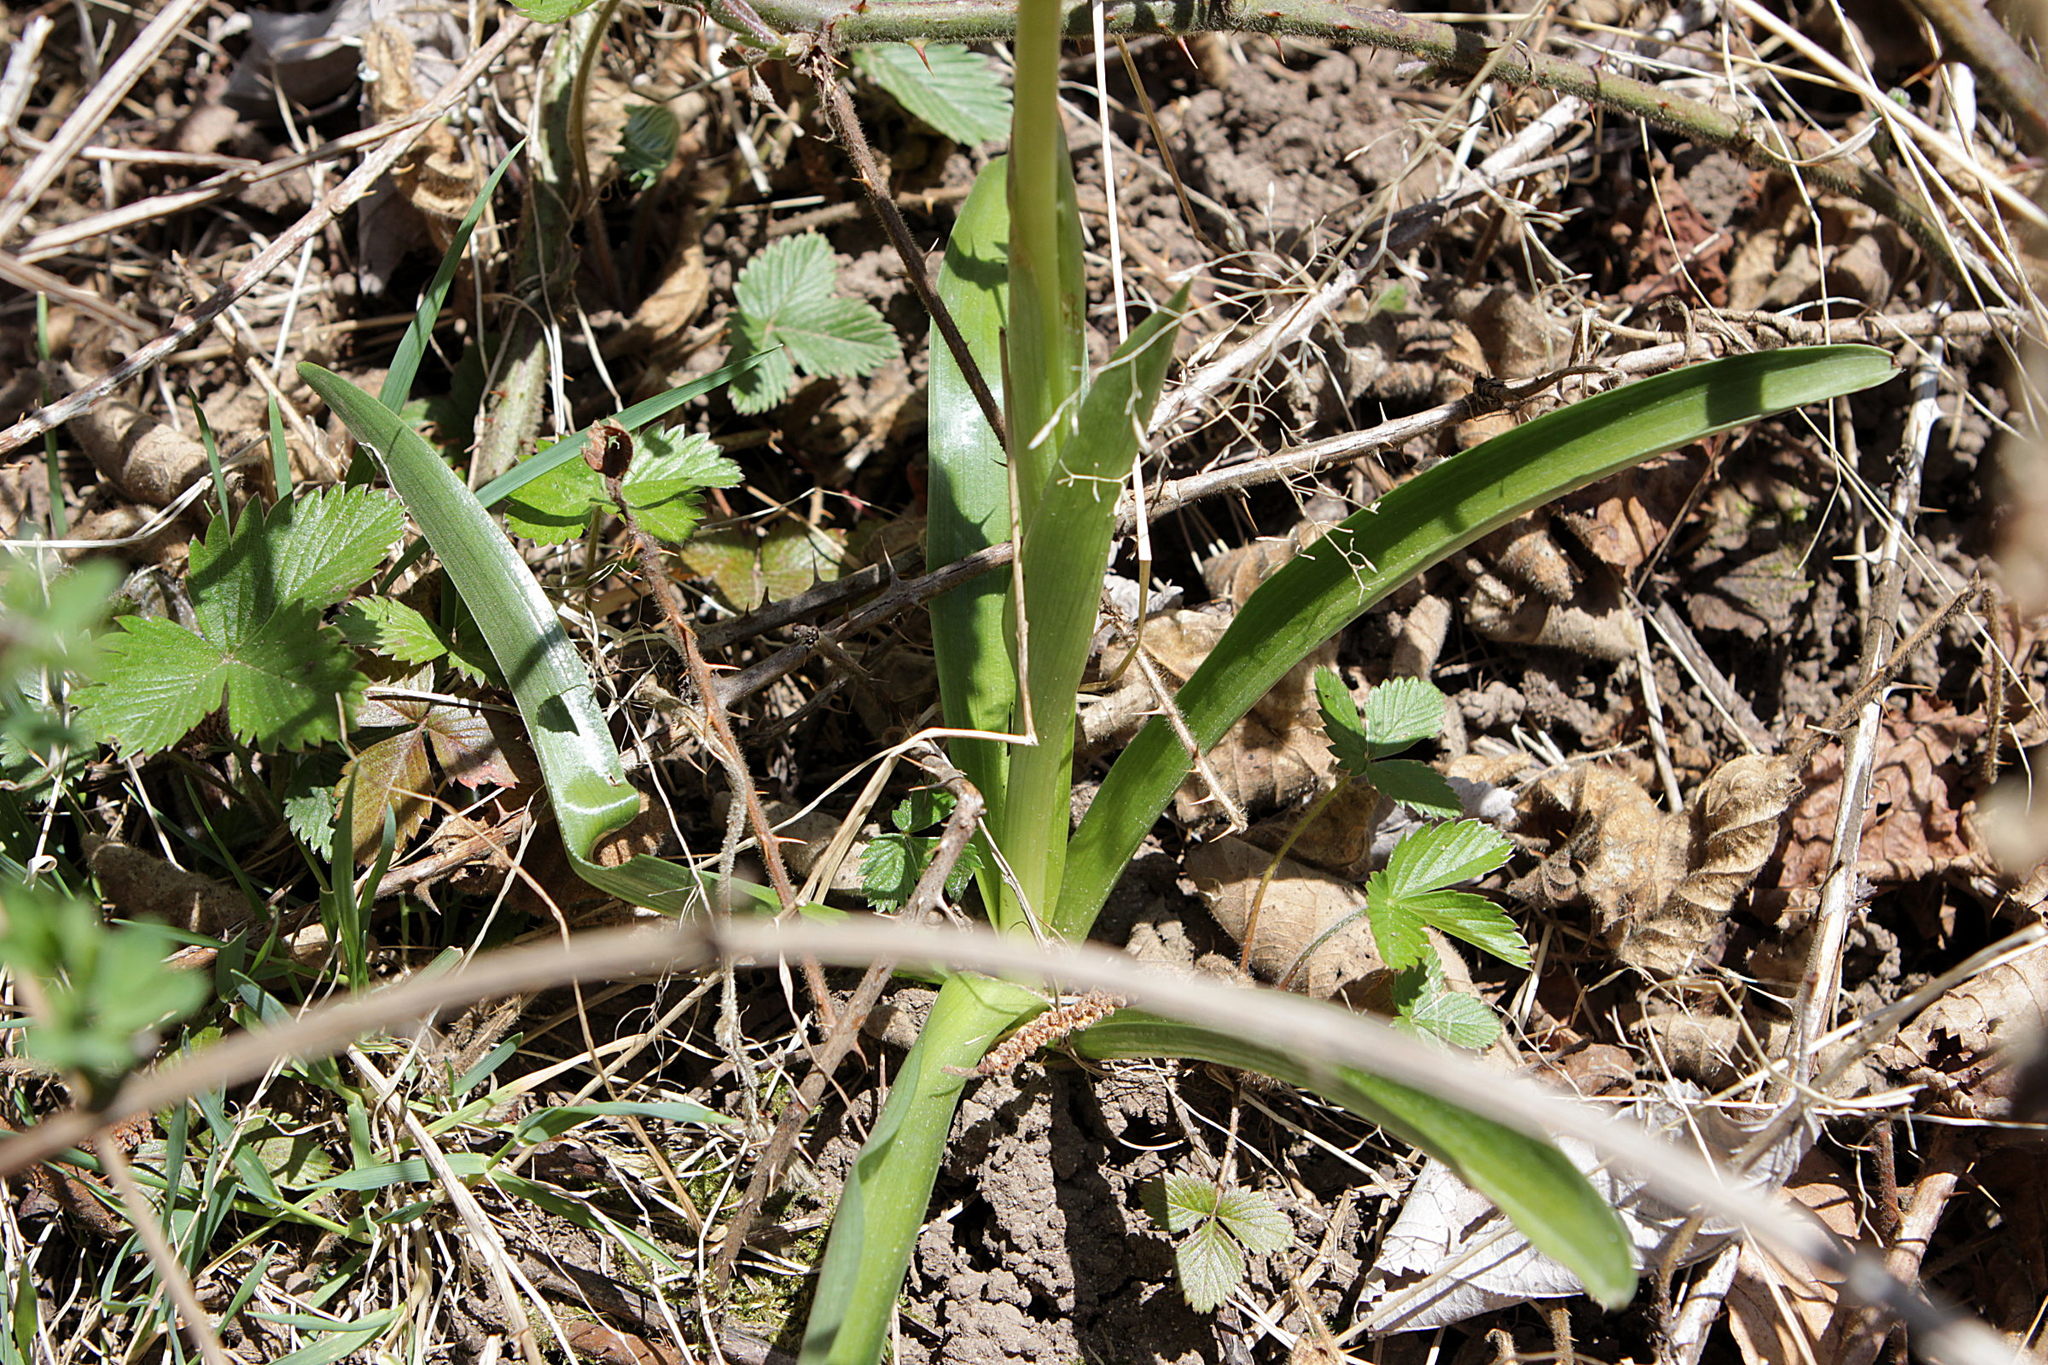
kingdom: Plantae
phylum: Tracheophyta
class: Liliopsida
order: Asparagales
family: Orchidaceae
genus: Orchis
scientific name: Orchis mascula
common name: Early-purple orchid
